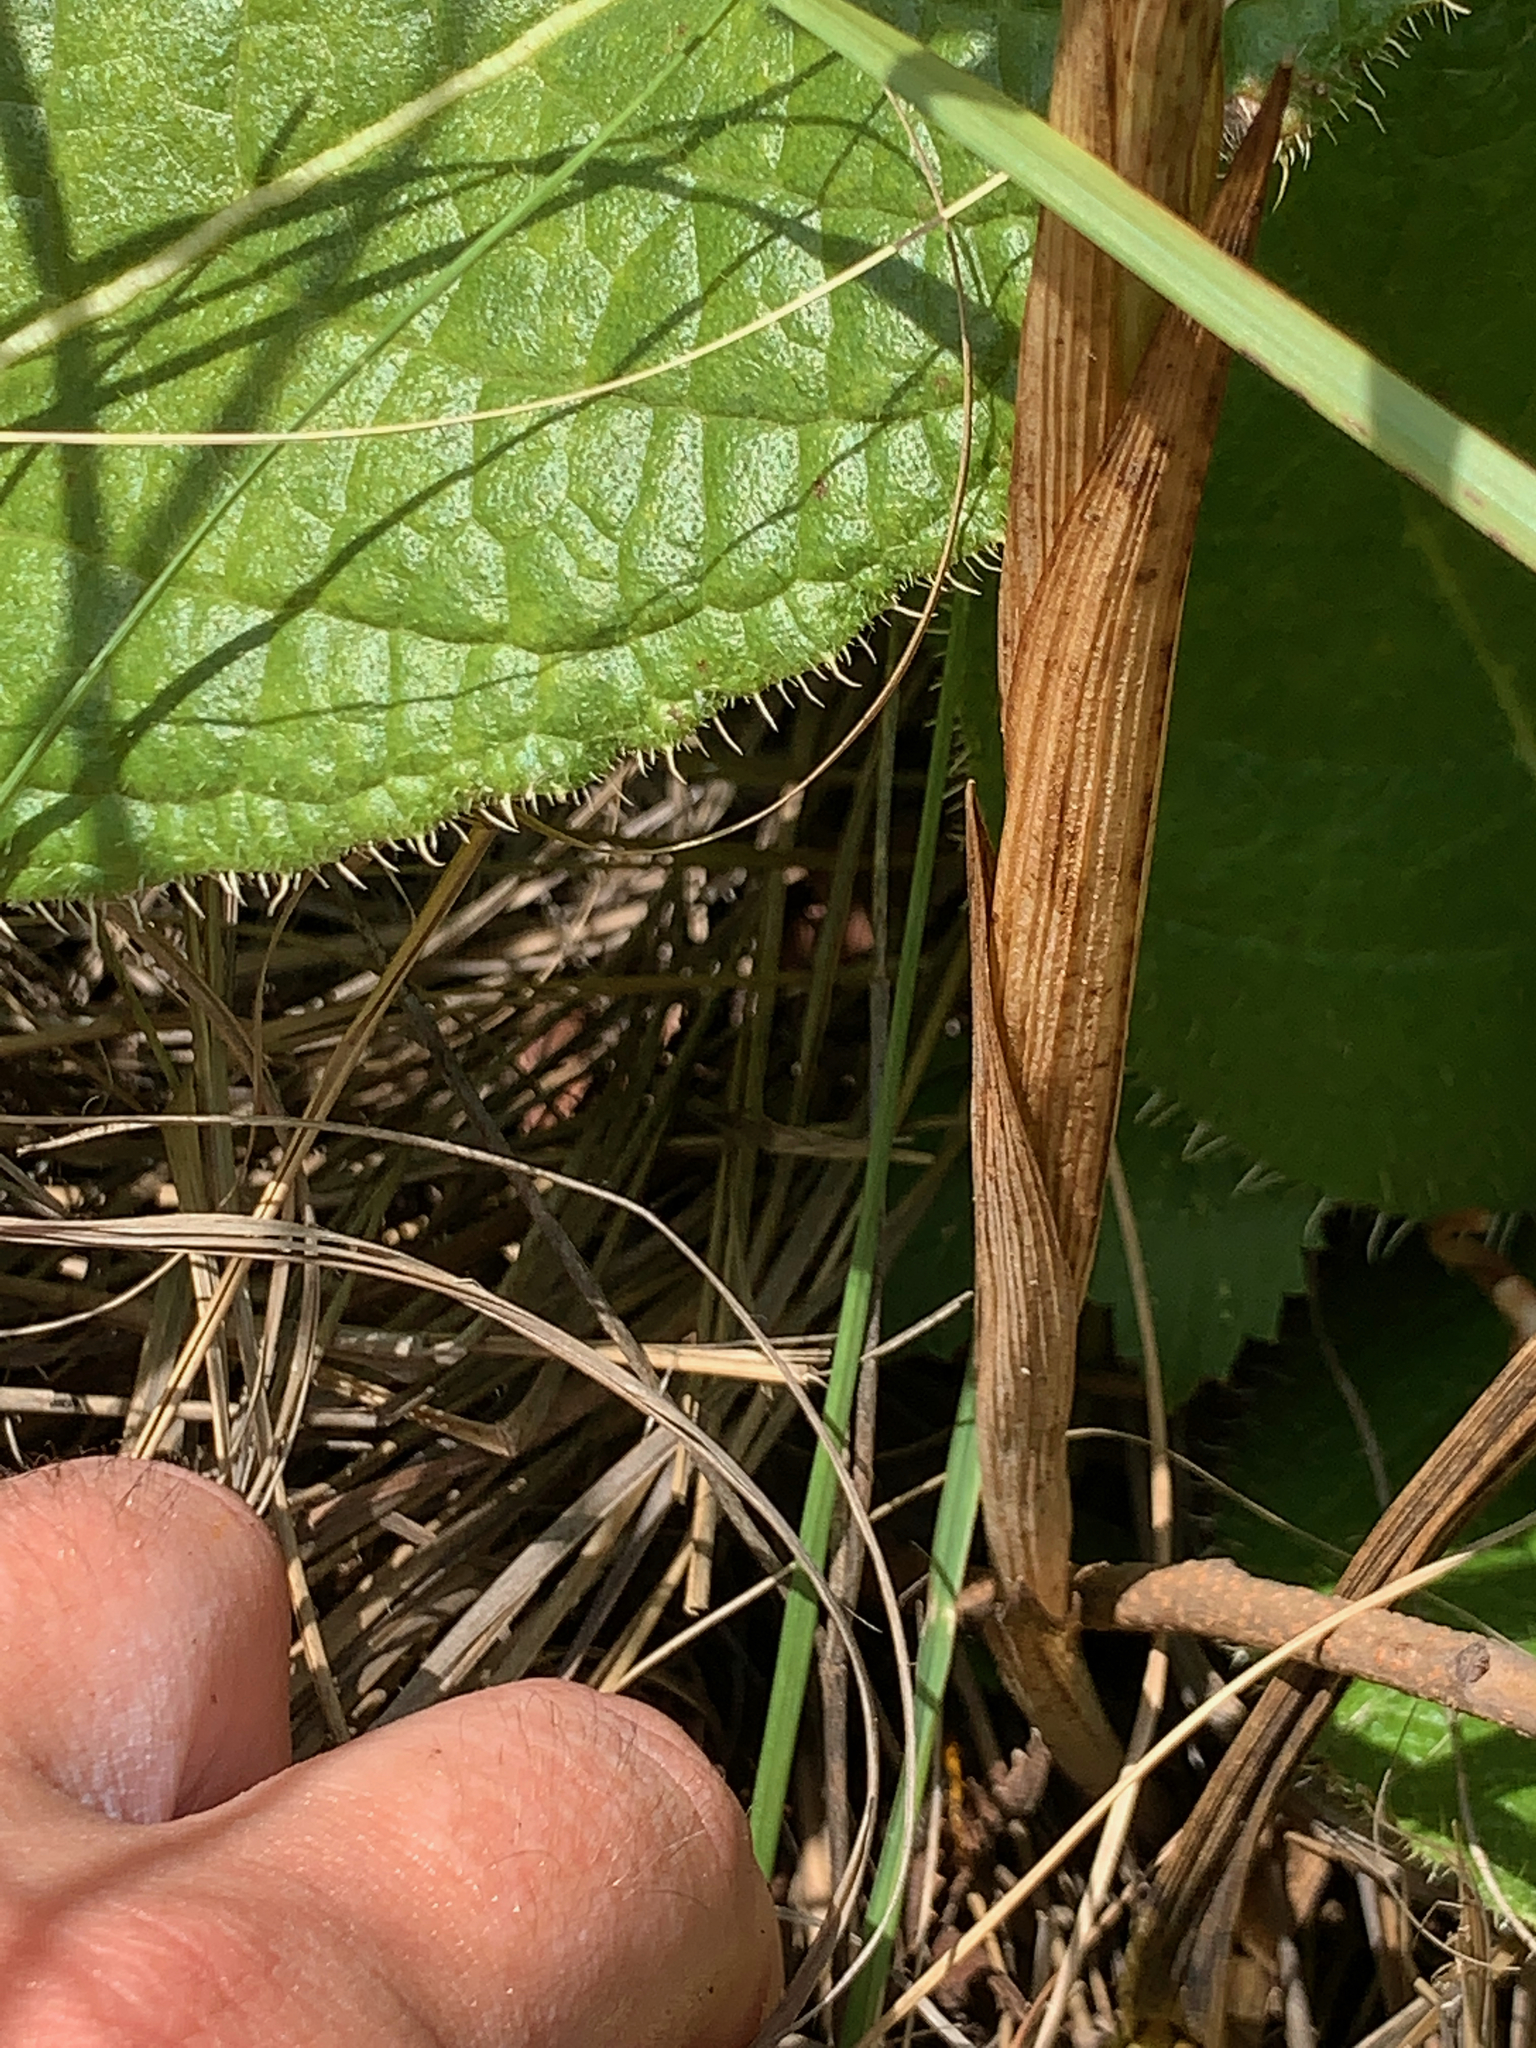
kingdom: Plantae
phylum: Tracheophyta
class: Liliopsida
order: Asparagales
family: Orchidaceae
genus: Eulophia
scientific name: Eulophia ovalis
